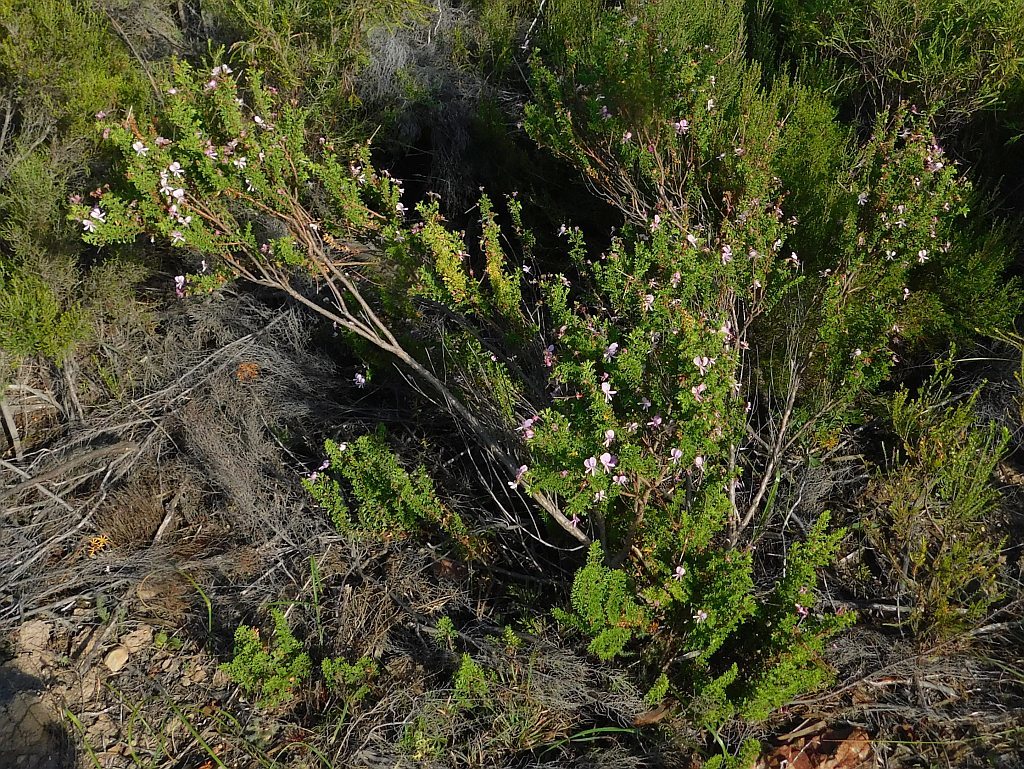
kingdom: Plantae
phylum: Tracheophyta
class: Magnoliopsida
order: Geraniales
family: Geraniaceae
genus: Pelargonium
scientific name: Pelargonium hermaniifolium
